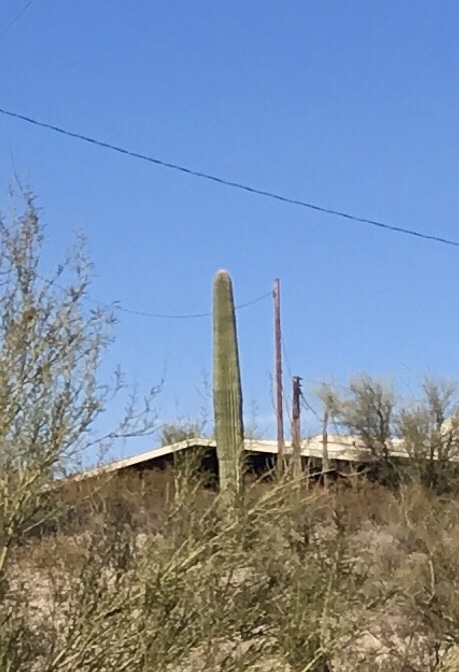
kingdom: Plantae
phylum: Tracheophyta
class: Magnoliopsida
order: Caryophyllales
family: Cactaceae
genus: Carnegiea
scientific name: Carnegiea gigantea
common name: Saguaro
